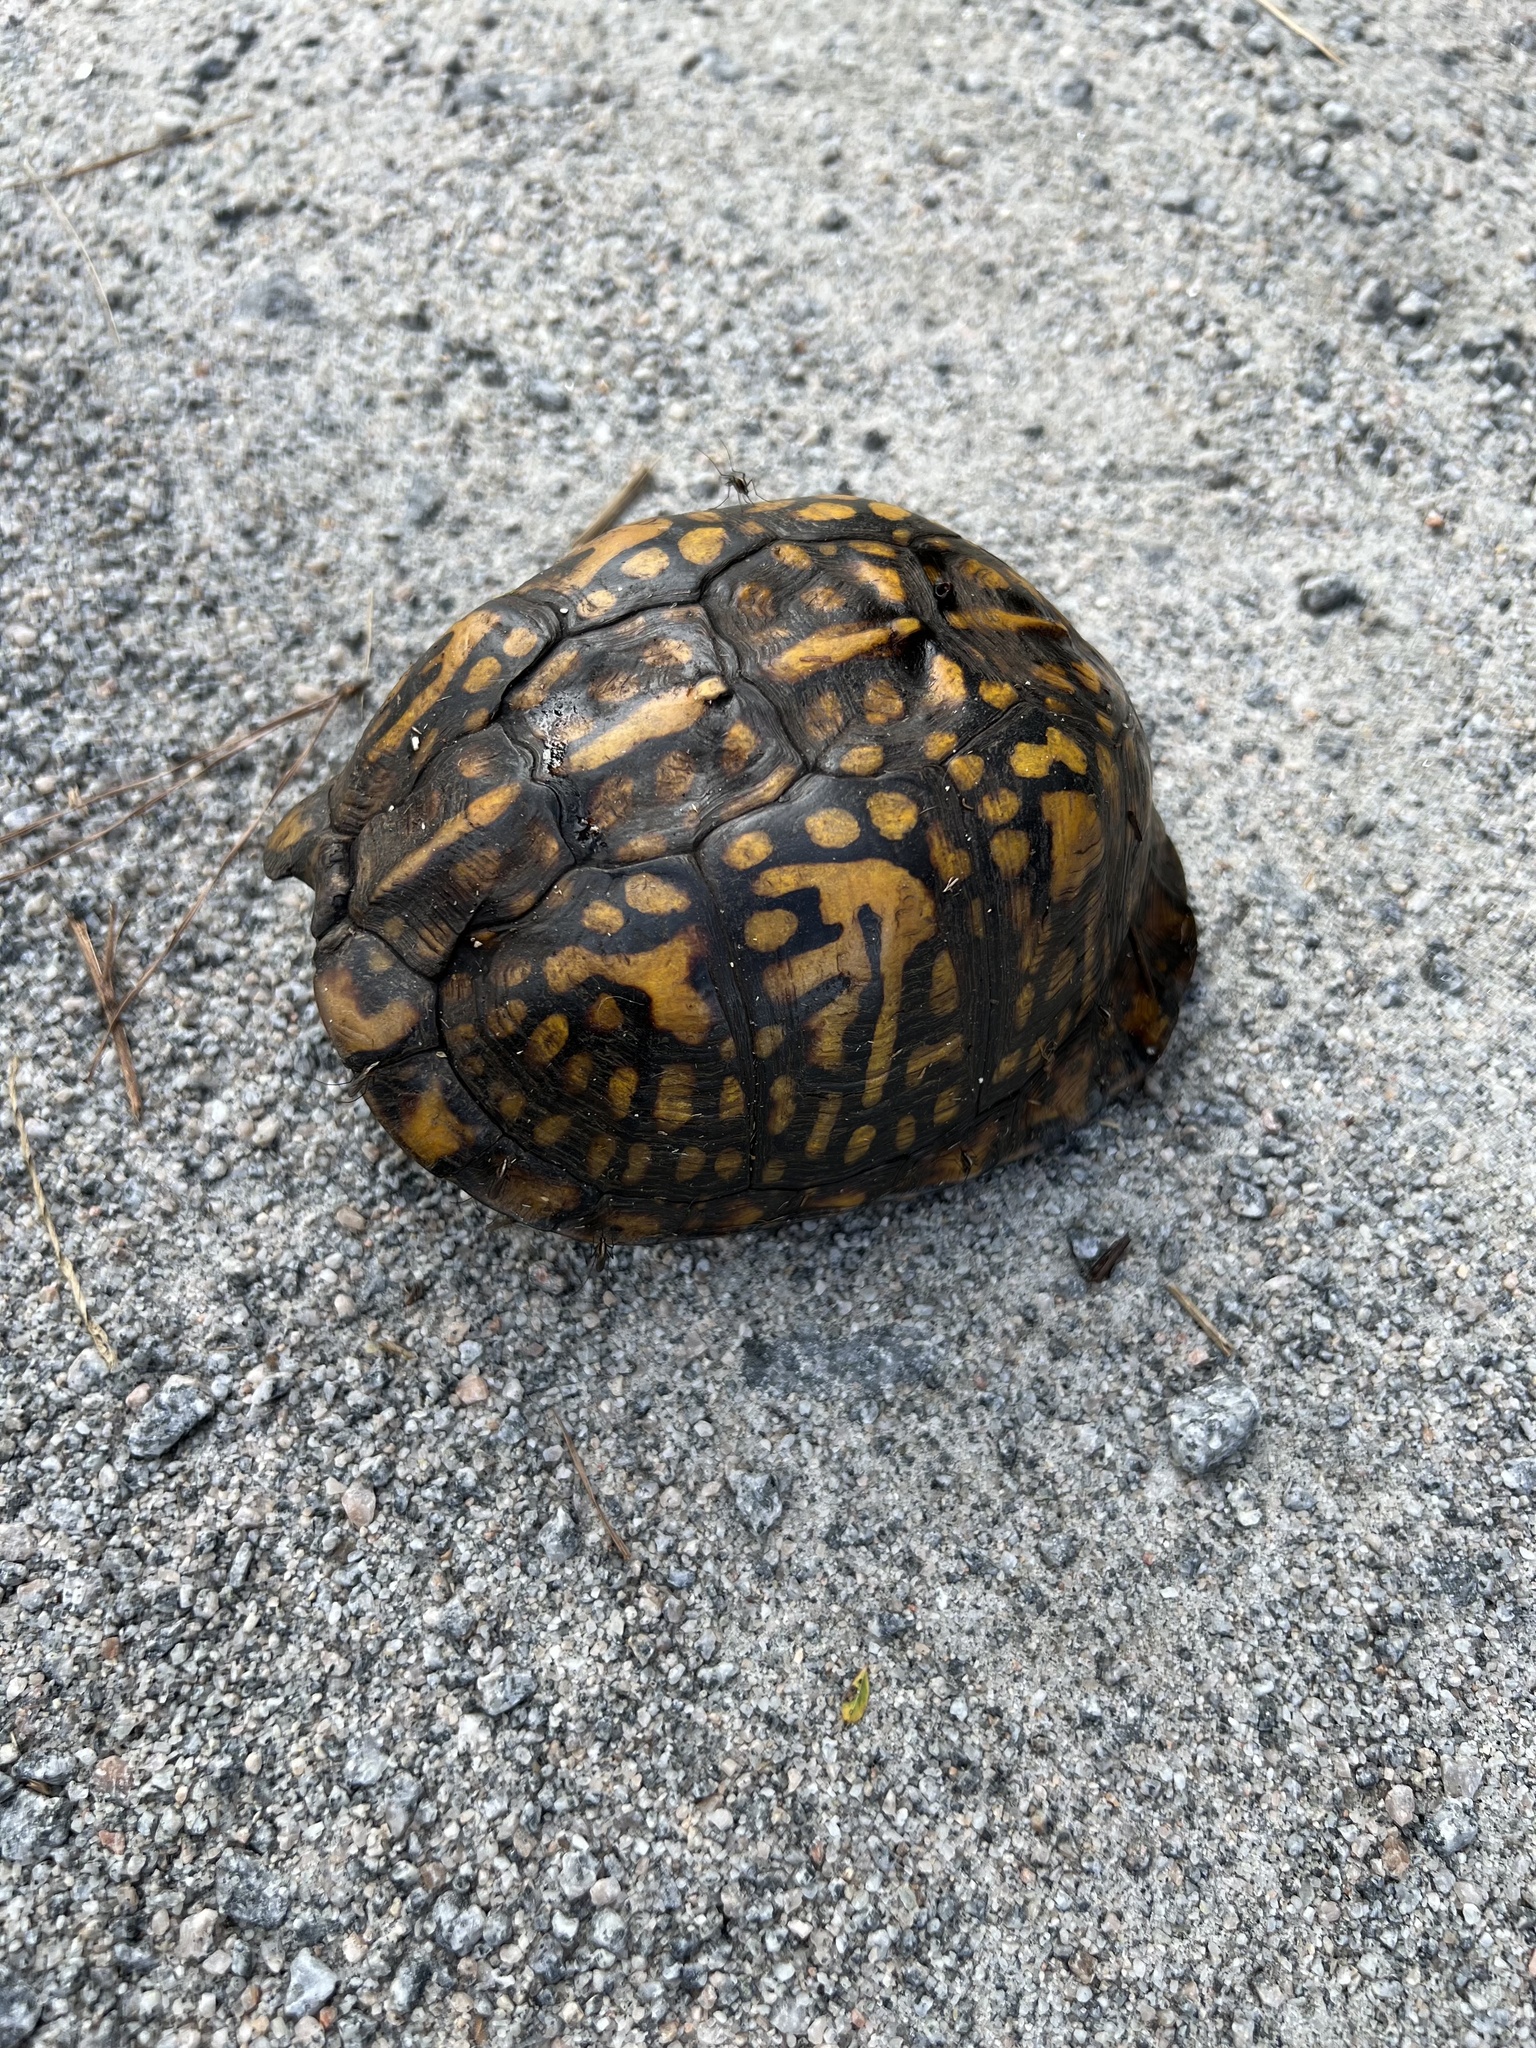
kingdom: Animalia
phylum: Chordata
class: Testudines
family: Emydidae
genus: Terrapene
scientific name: Terrapene carolina
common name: Common box turtle
